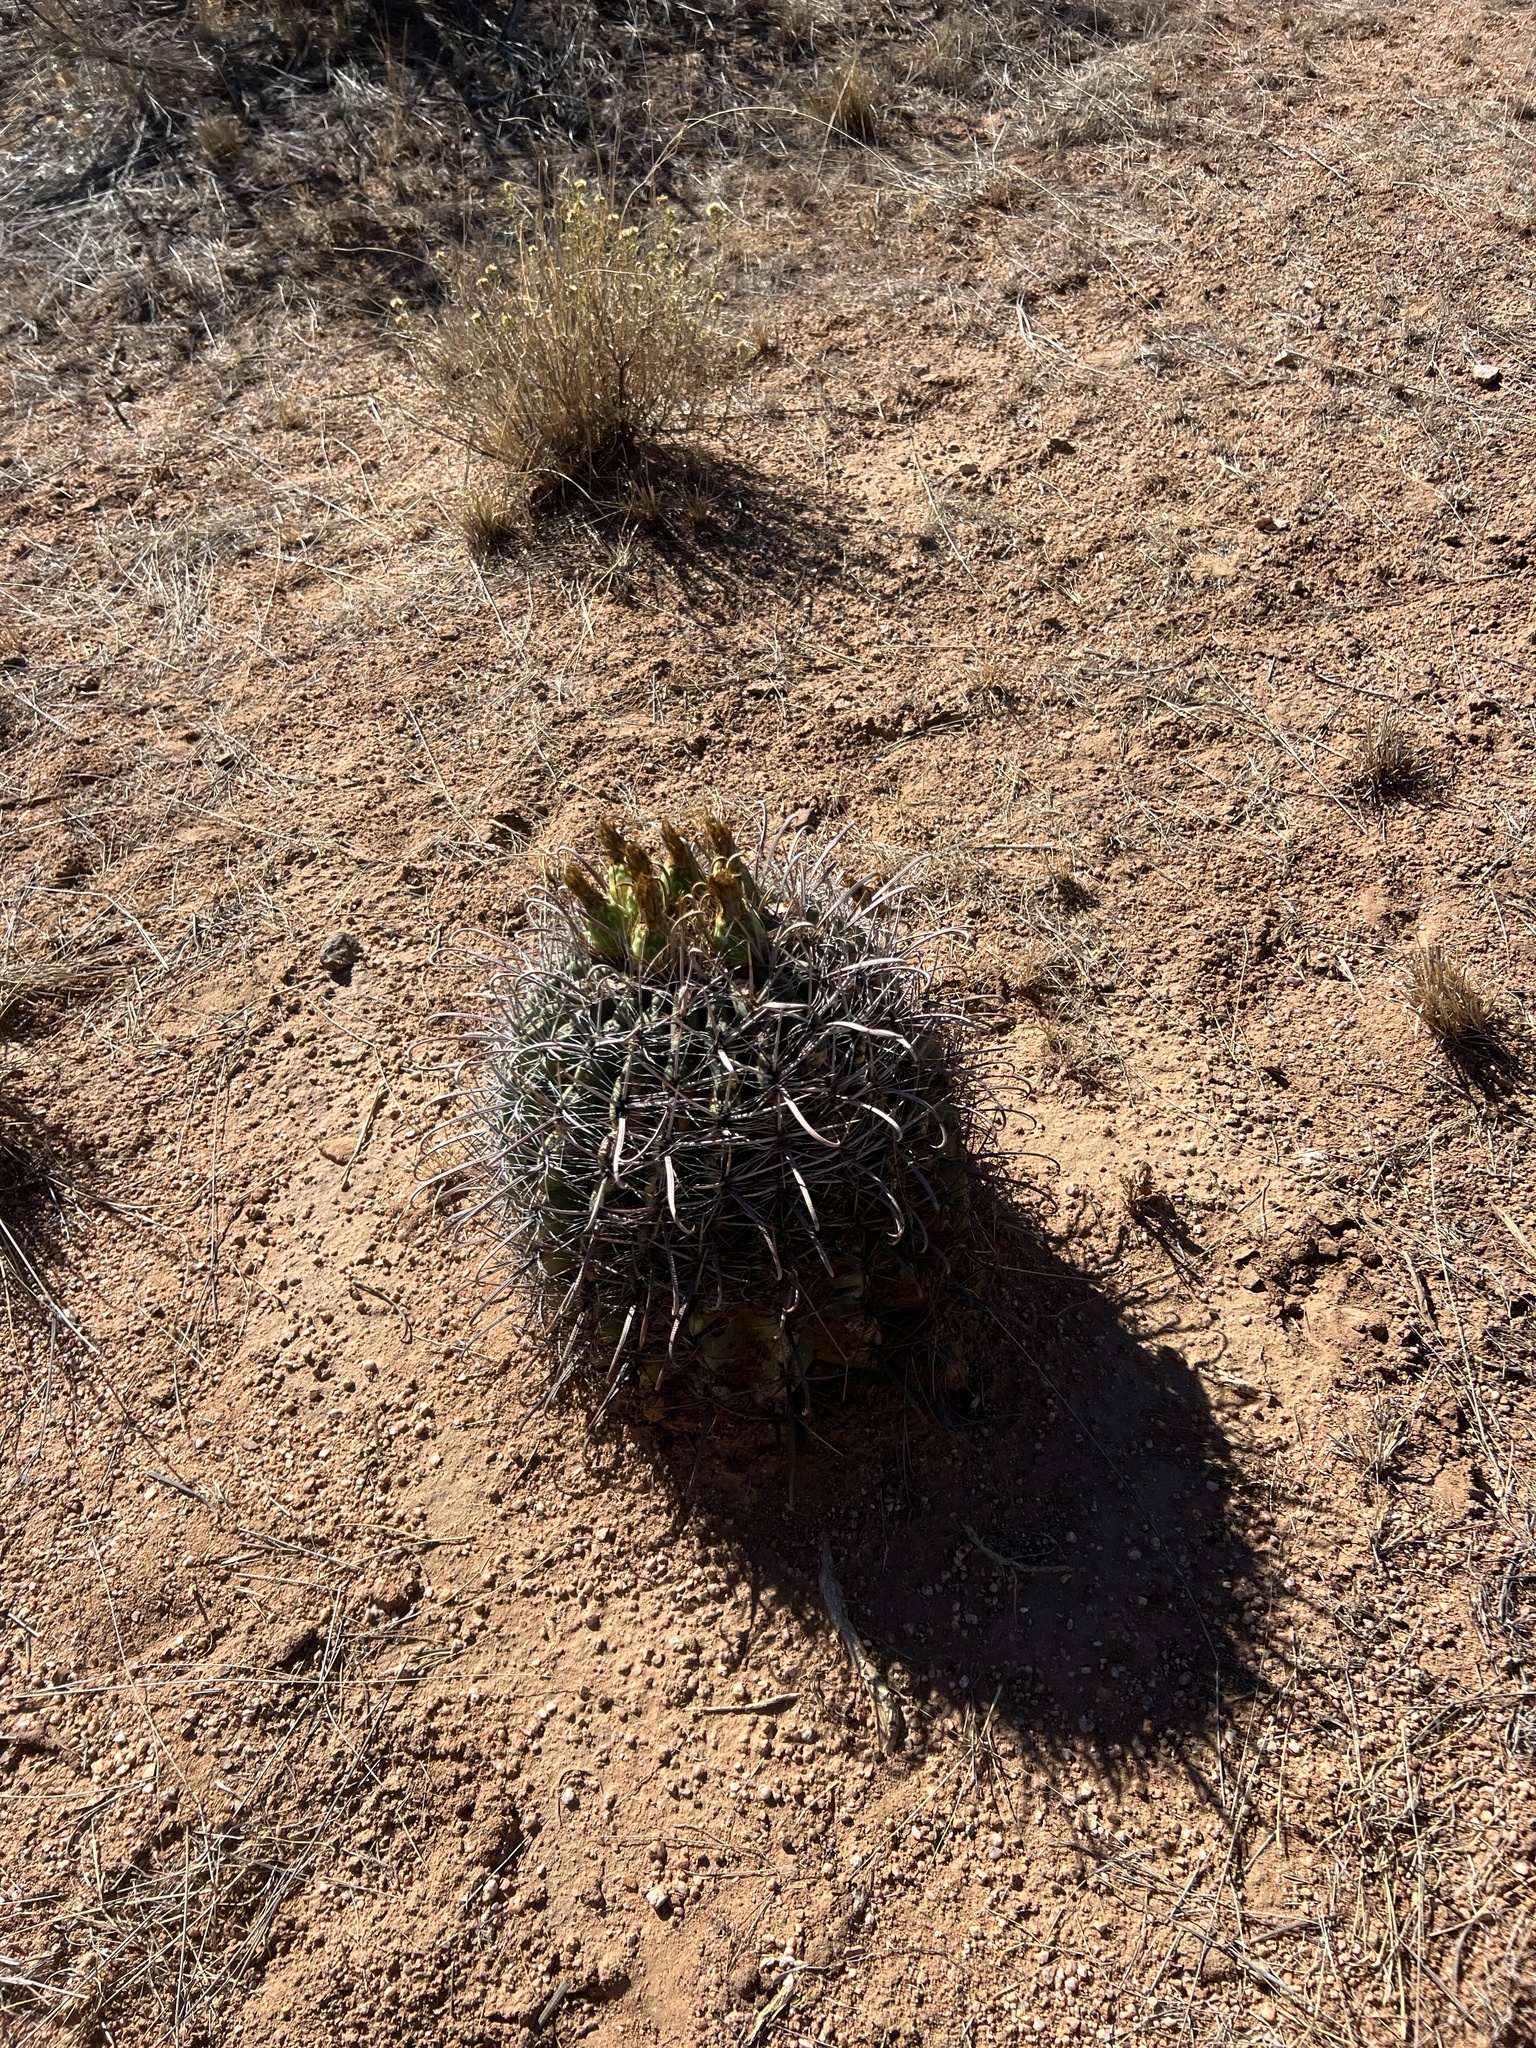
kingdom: Plantae
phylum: Tracheophyta
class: Magnoliopsida
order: Caryophyllales
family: Cactaceae
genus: Ferocactus
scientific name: Ferocactus wislizeni
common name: Candy barrel cactus
